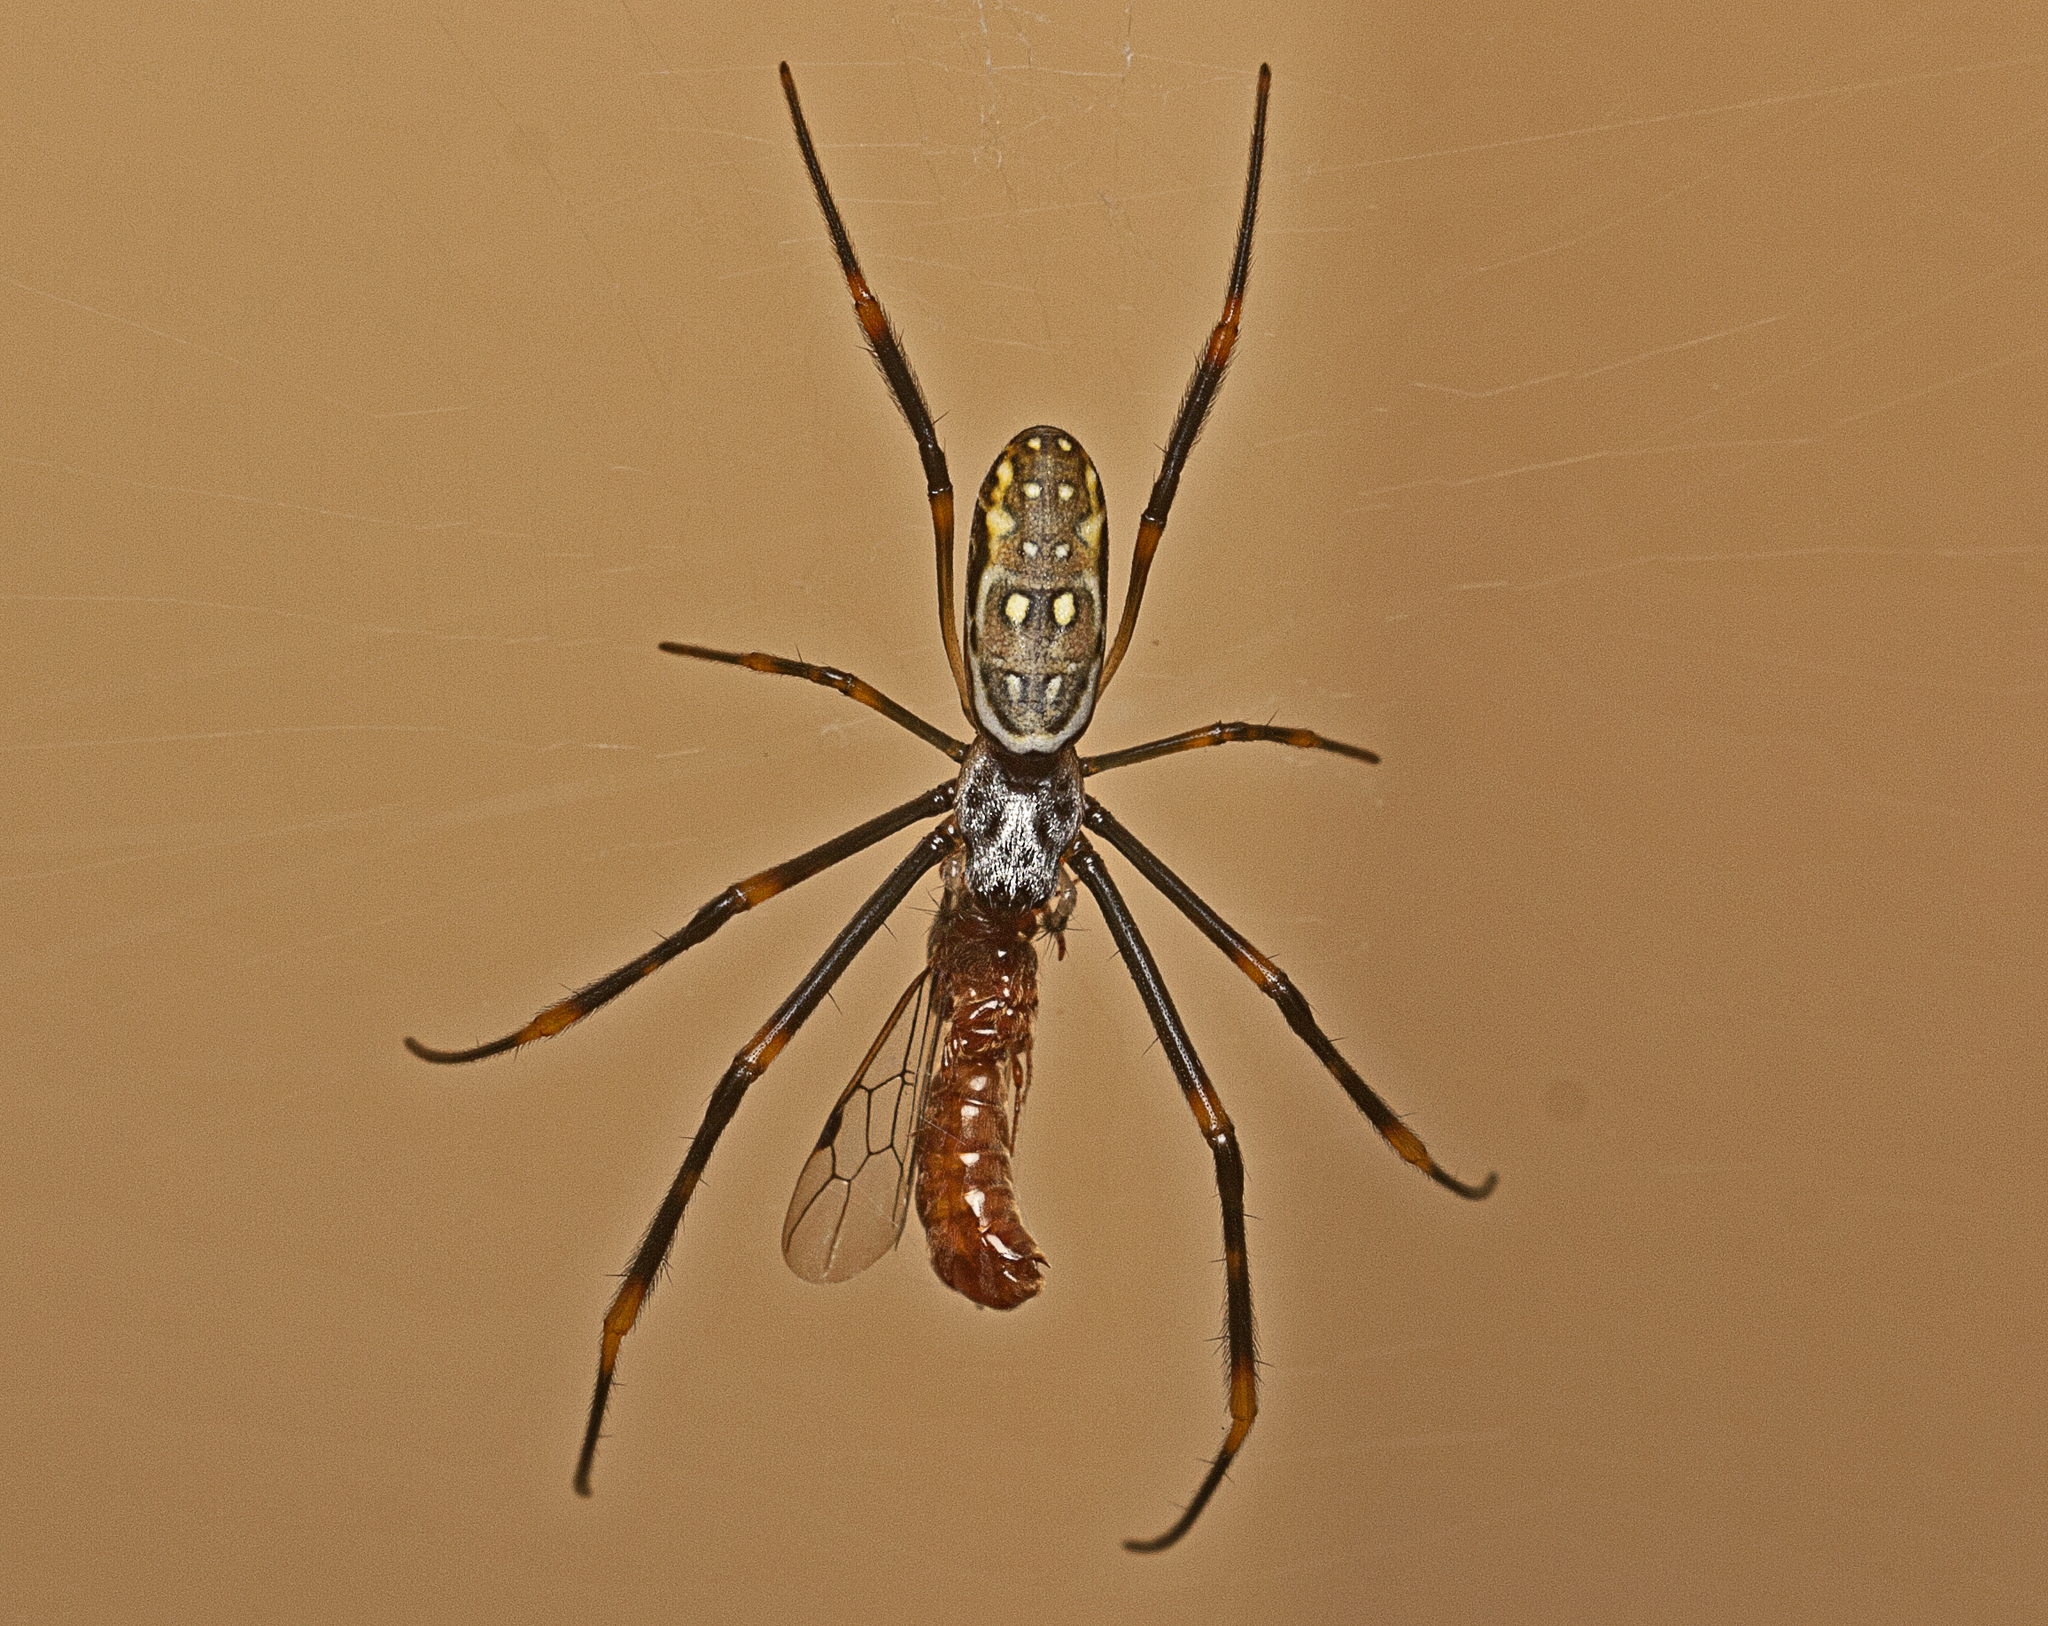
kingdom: Animalia
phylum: Arthropoda
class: Arachnida
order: Araneae
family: Araneidae
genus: Trichonephila
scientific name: Trichonephila plumipes
